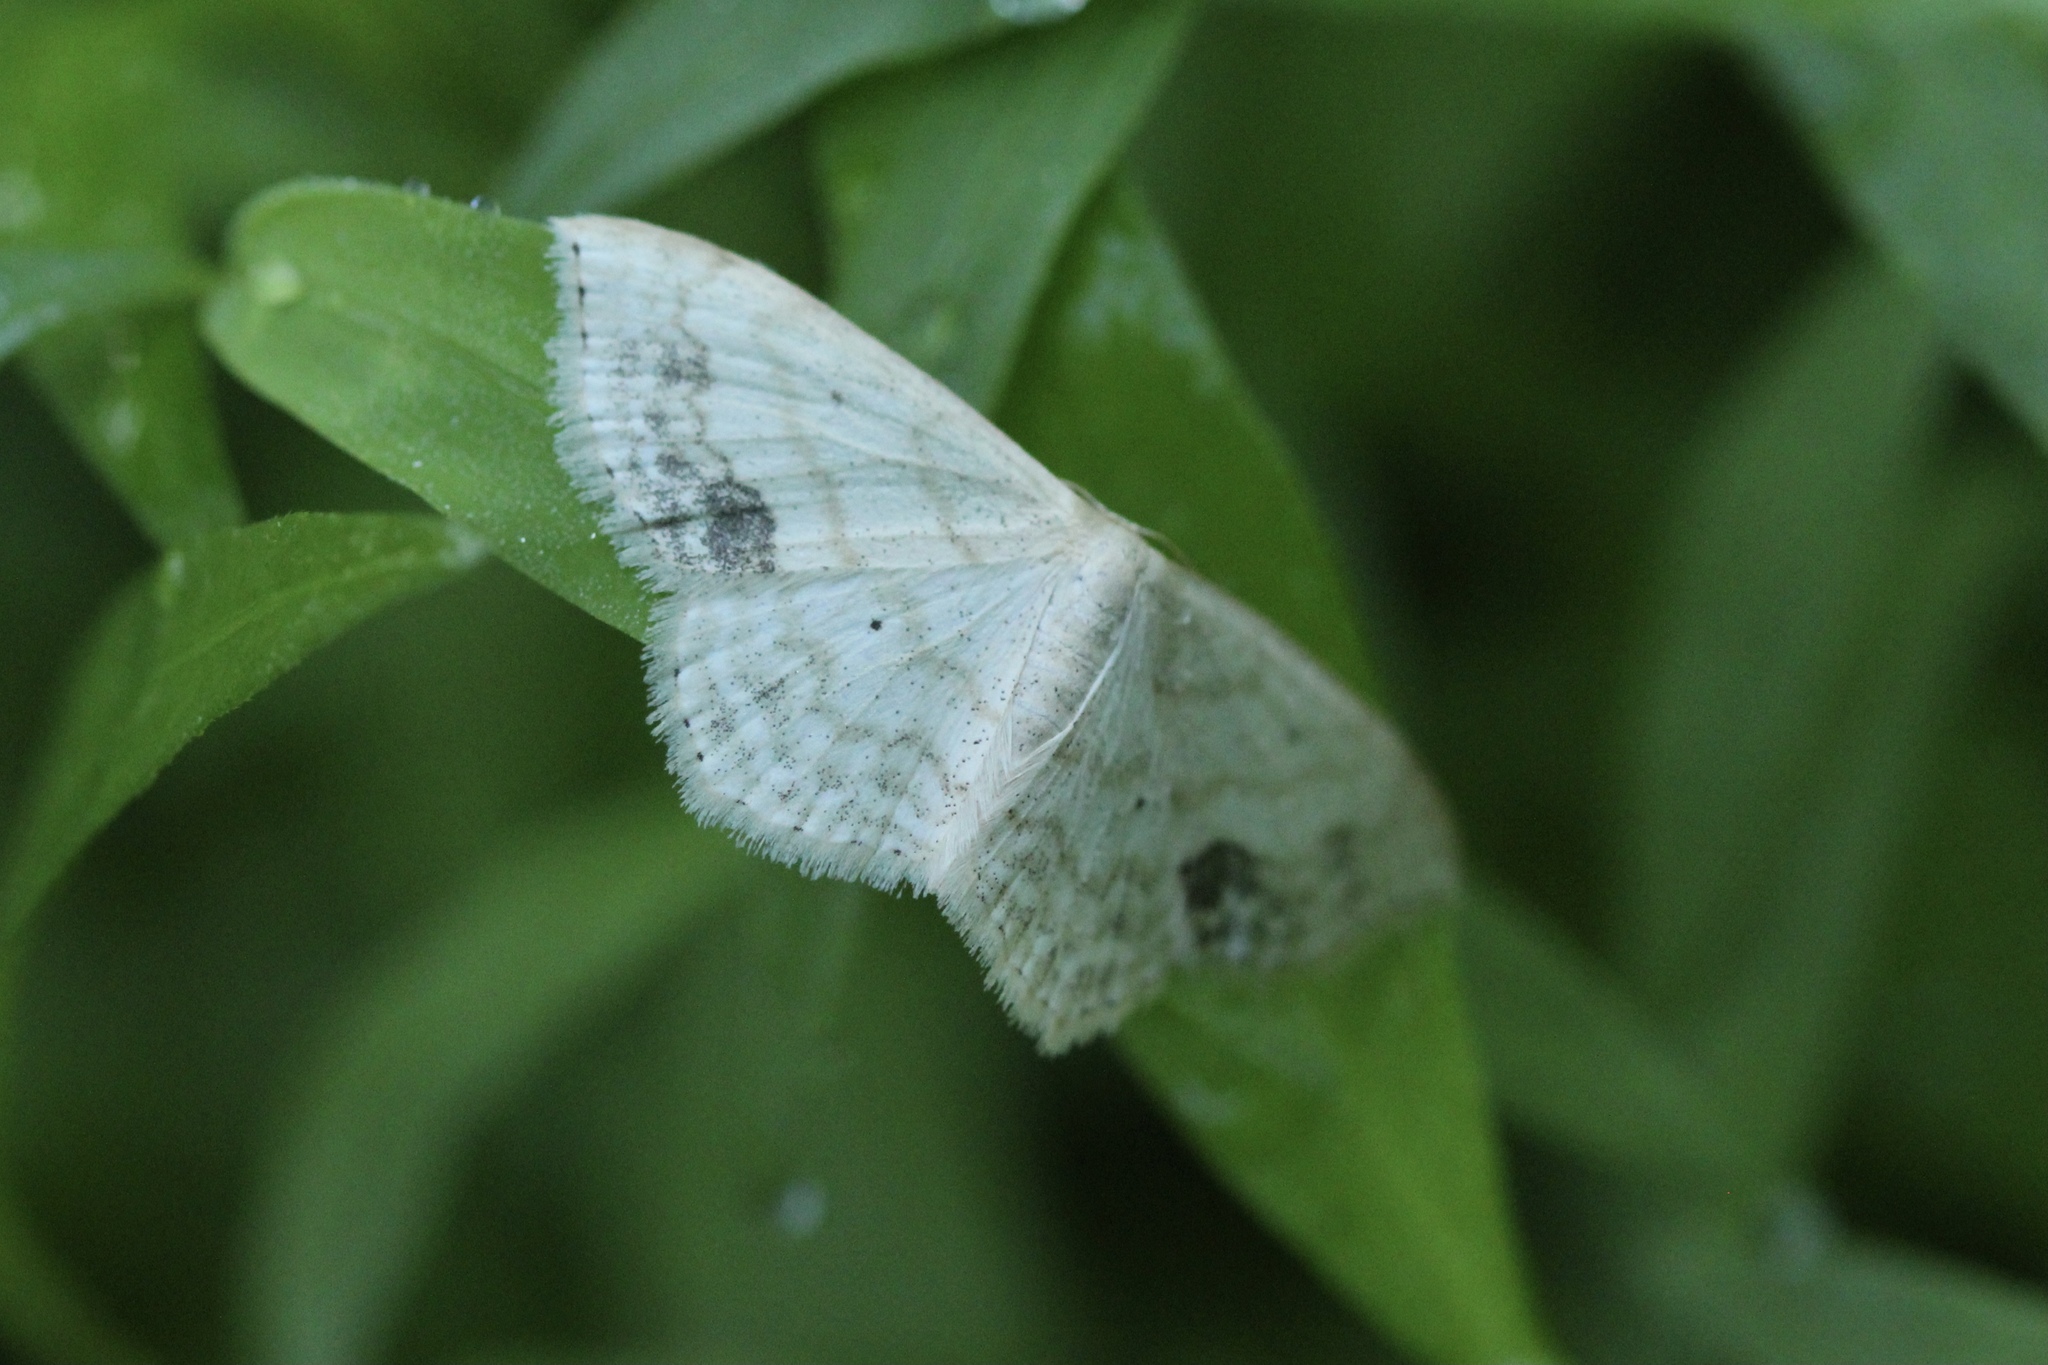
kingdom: Animalia
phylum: Arthropoda
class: Insecta
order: Lepidoptera
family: Geometridae
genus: Scopula
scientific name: Scopula limboundata
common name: Large lace border
